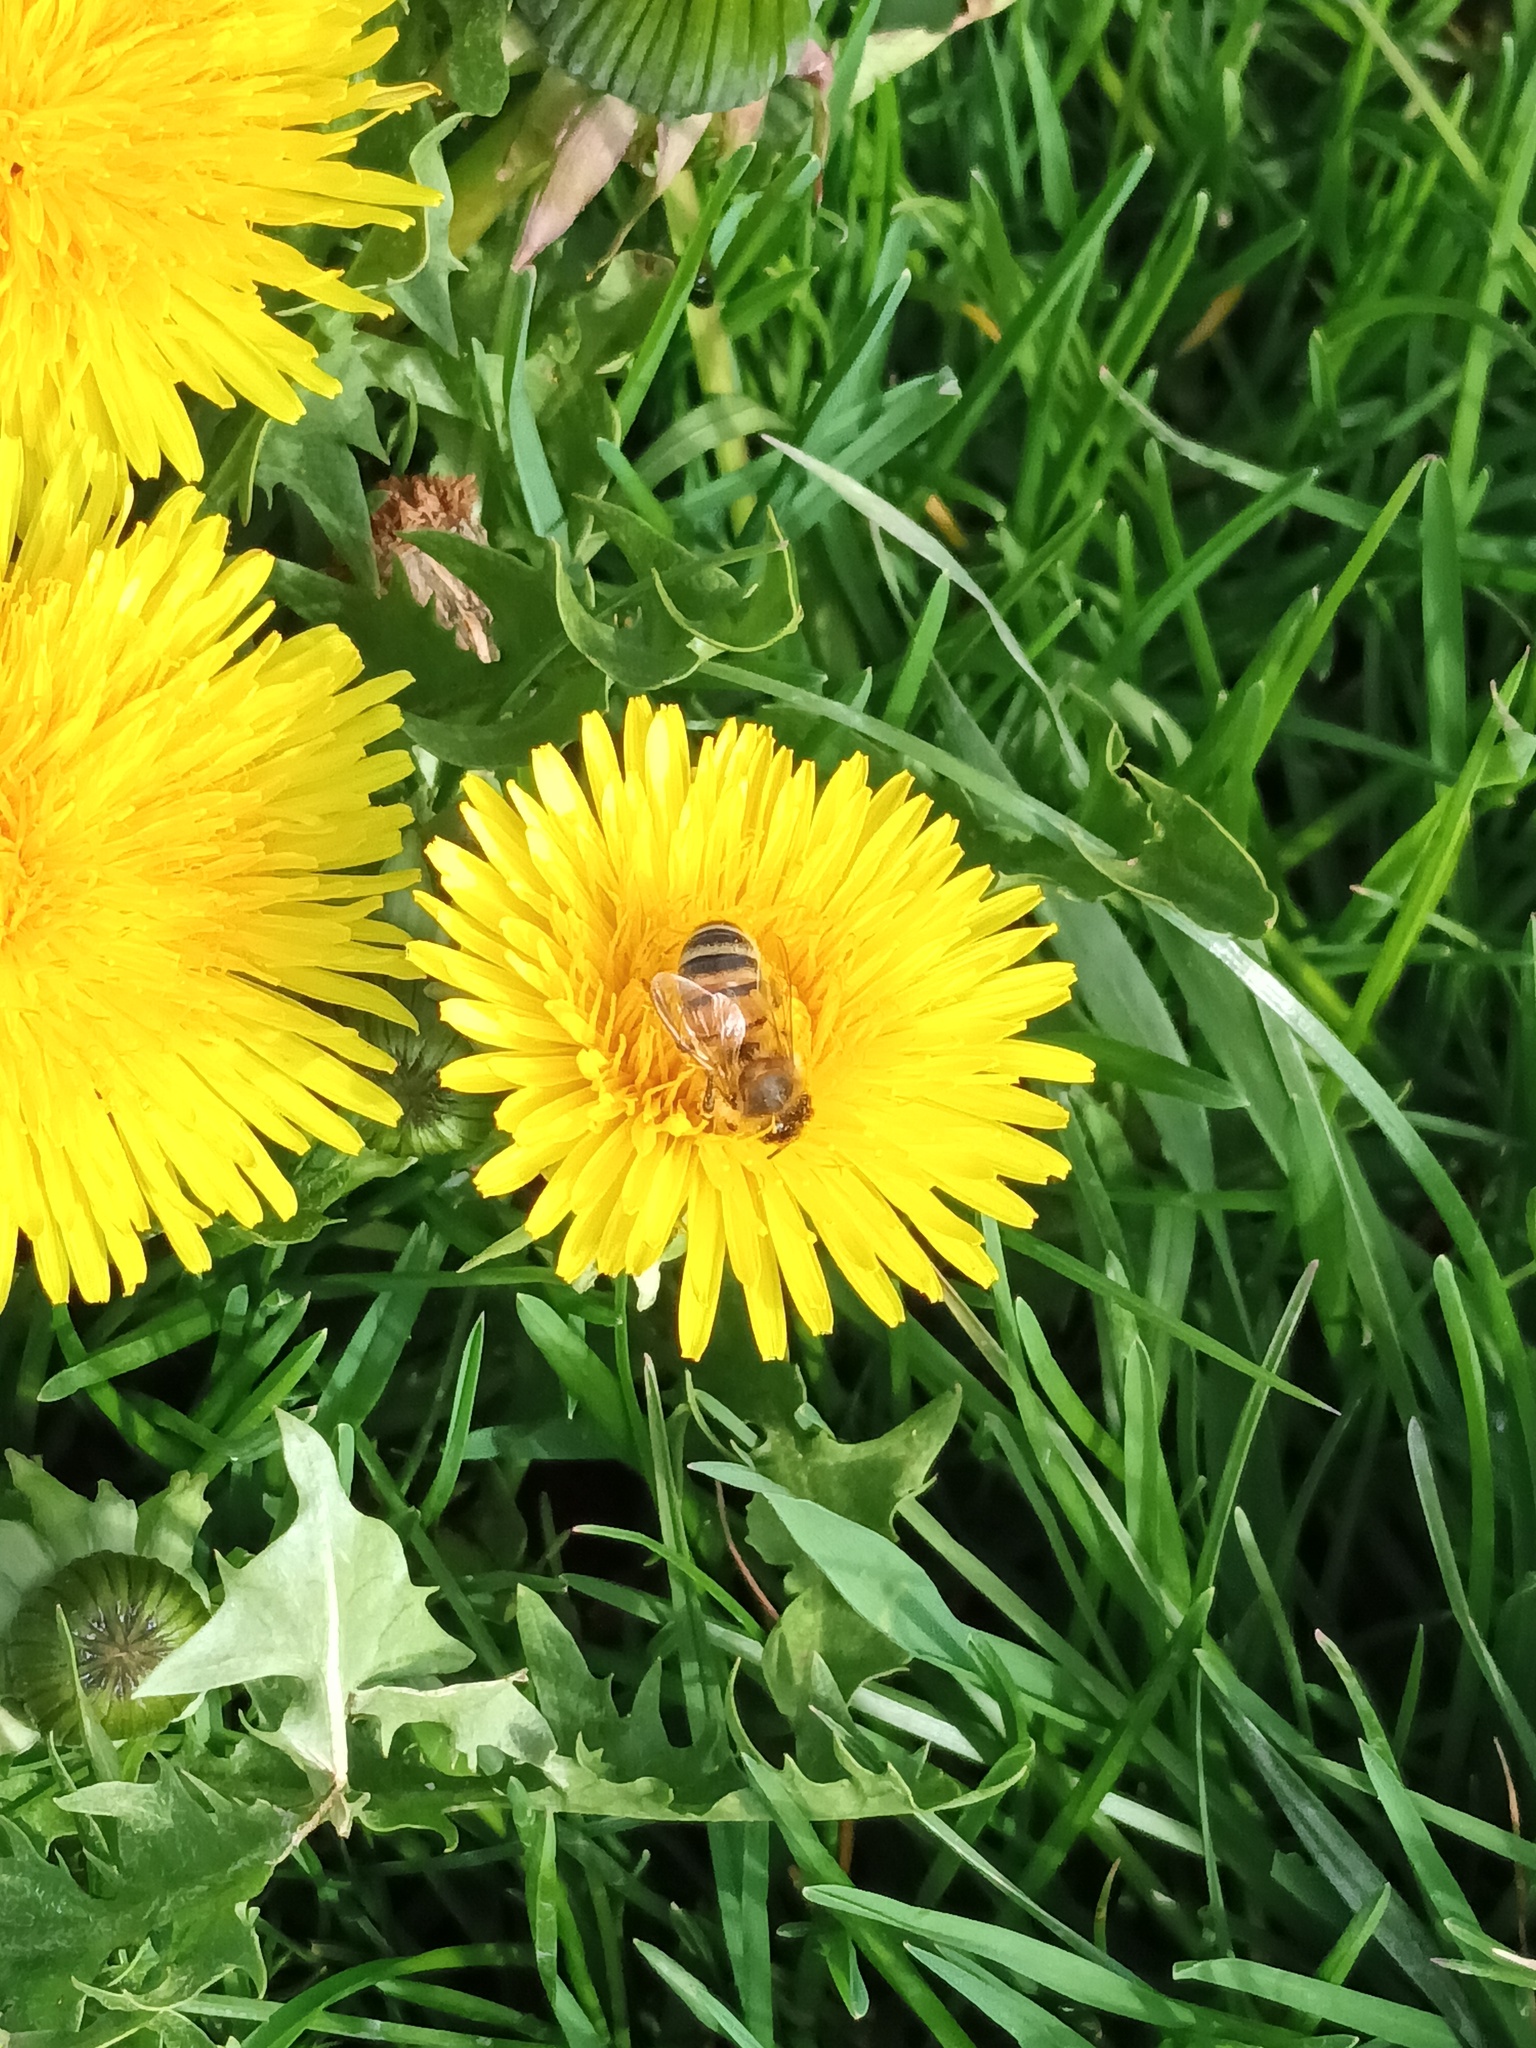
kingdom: Animalia
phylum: Arthropoda
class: Insecta
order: Hymenoptera
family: Apidae
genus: Apis
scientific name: Apis mellifera
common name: Honey bee
